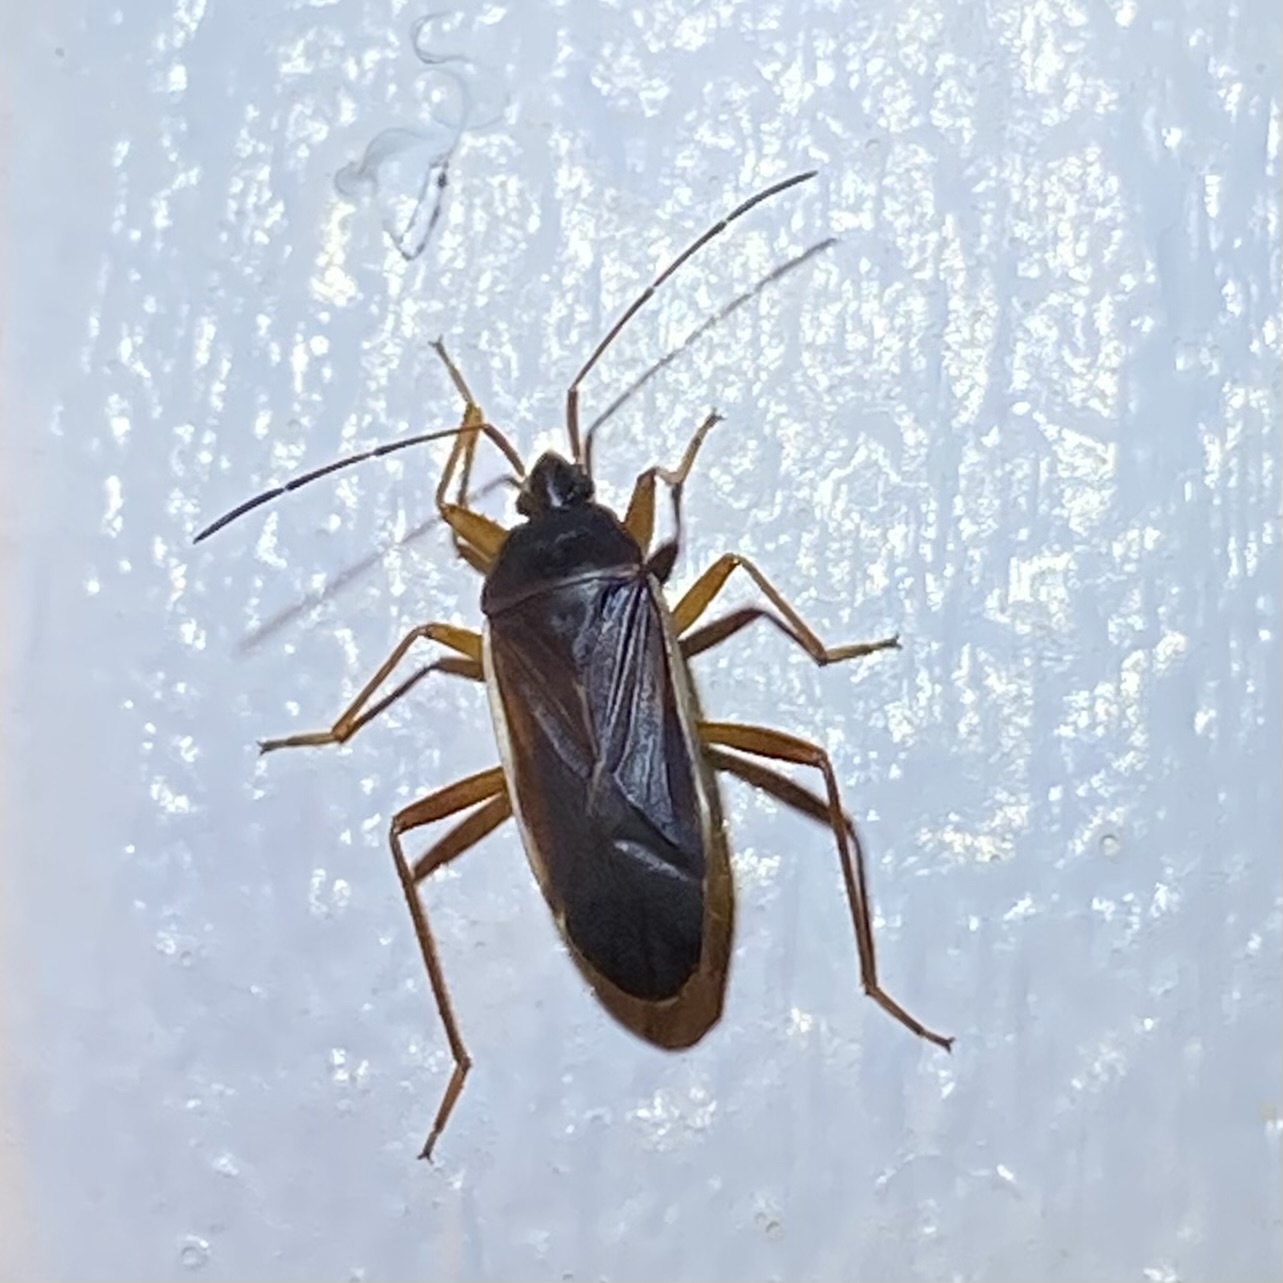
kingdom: Animalia
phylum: Arthropoda
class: Insecta
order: Hemiptera
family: Rhyparochromidae
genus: Balboa
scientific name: Balboa ampliata
